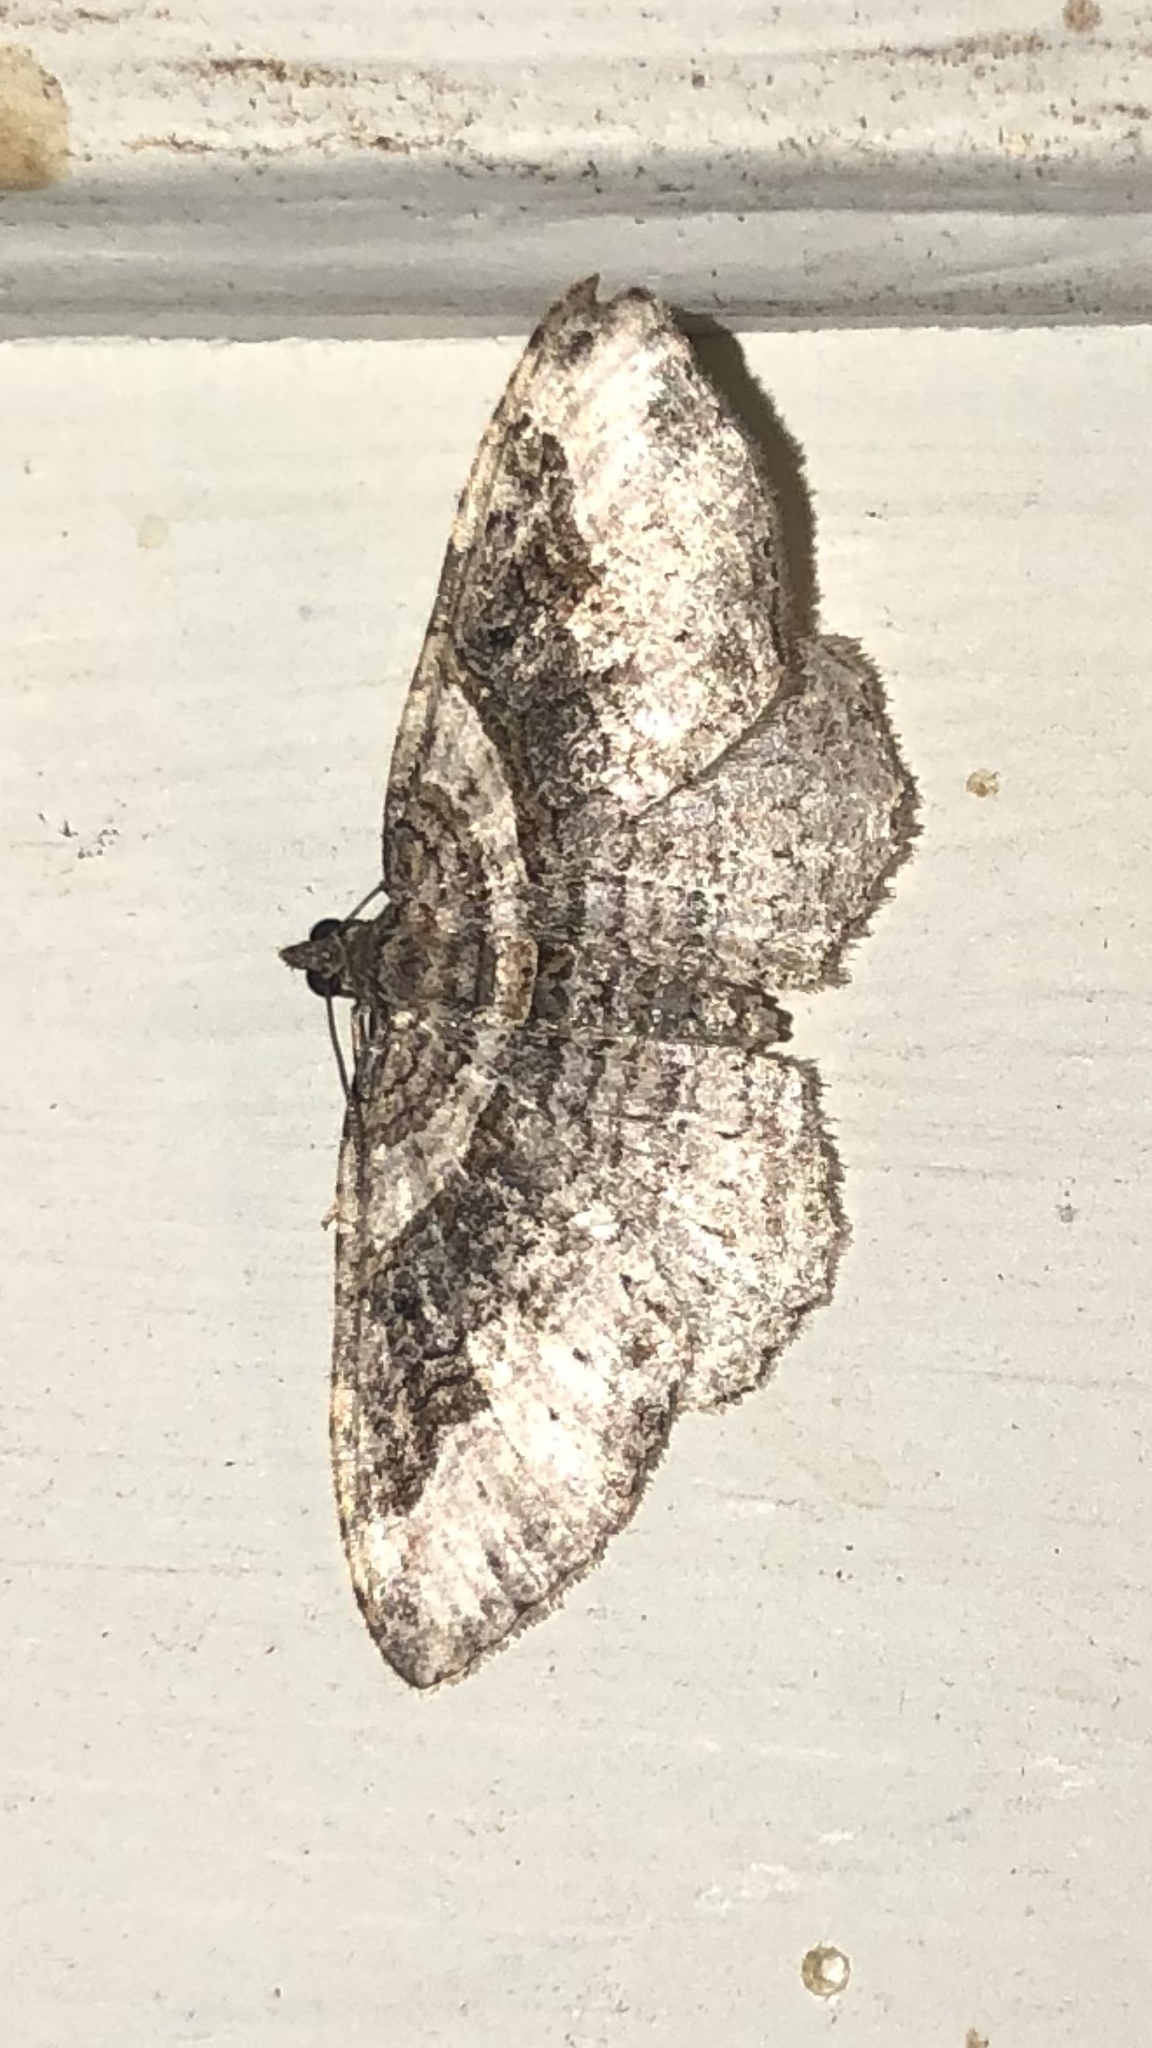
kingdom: Animalia
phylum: Arthropoda
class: Insecta
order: Lepidoptera
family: Geometridae
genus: Costaconvexa
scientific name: Costaconvexa centrostrigaria
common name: Bent-line carpet
